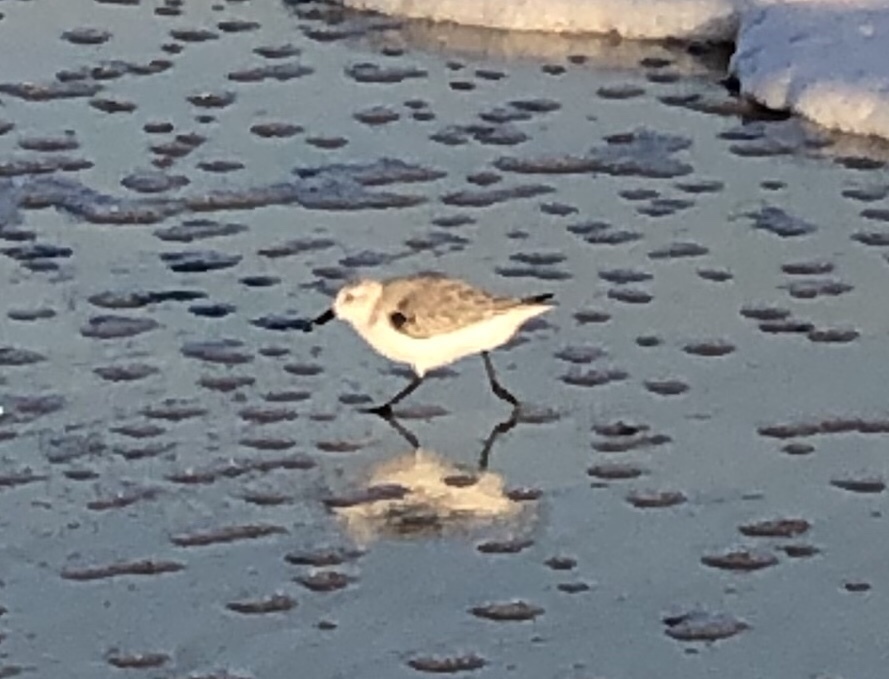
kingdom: Animalia
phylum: Chordata
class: Aves
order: Charadriiformes
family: Scolopacidae
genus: Calidris
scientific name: Calidris alba
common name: Sanderling
